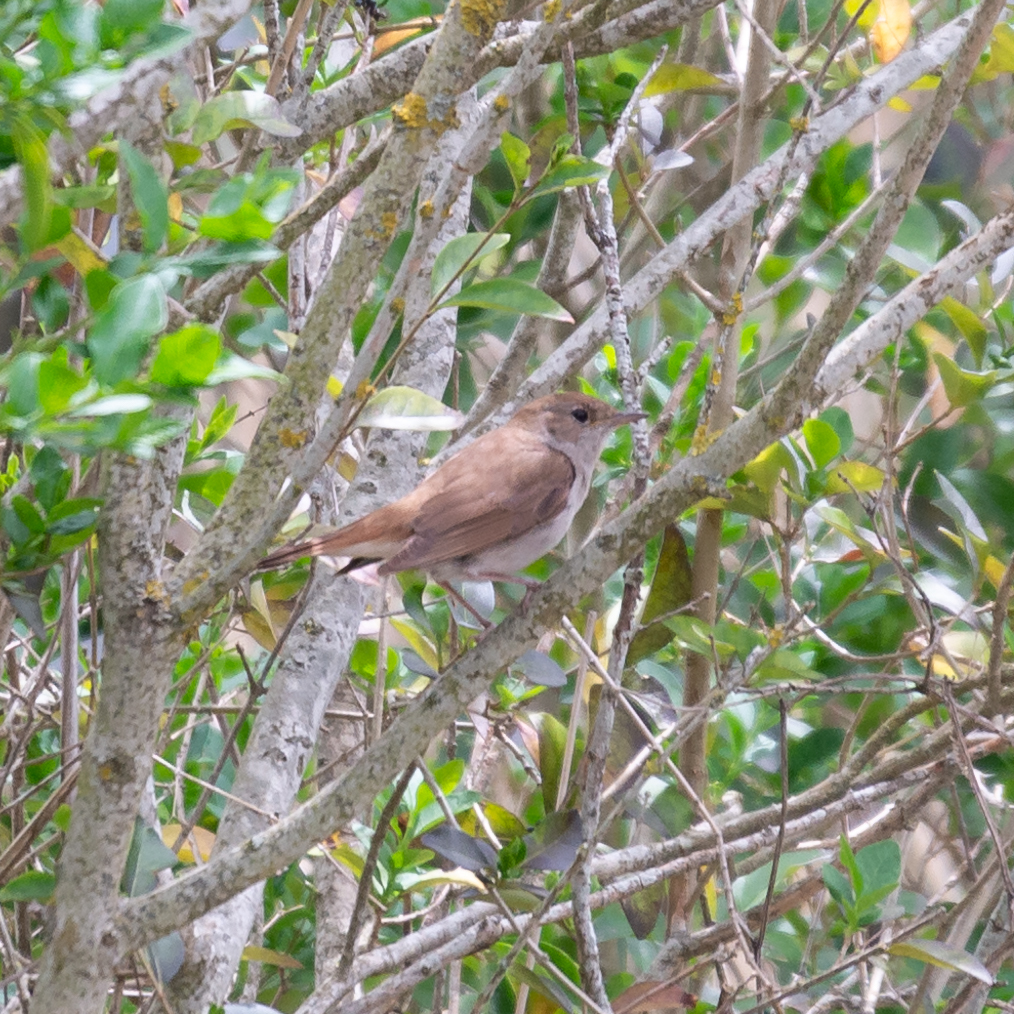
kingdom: Animalia
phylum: Chordata
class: Aves
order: Passeriformes
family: Muscicapidae
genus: Luscinia
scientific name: Luscinia megarhynchos
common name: Common nightingale
